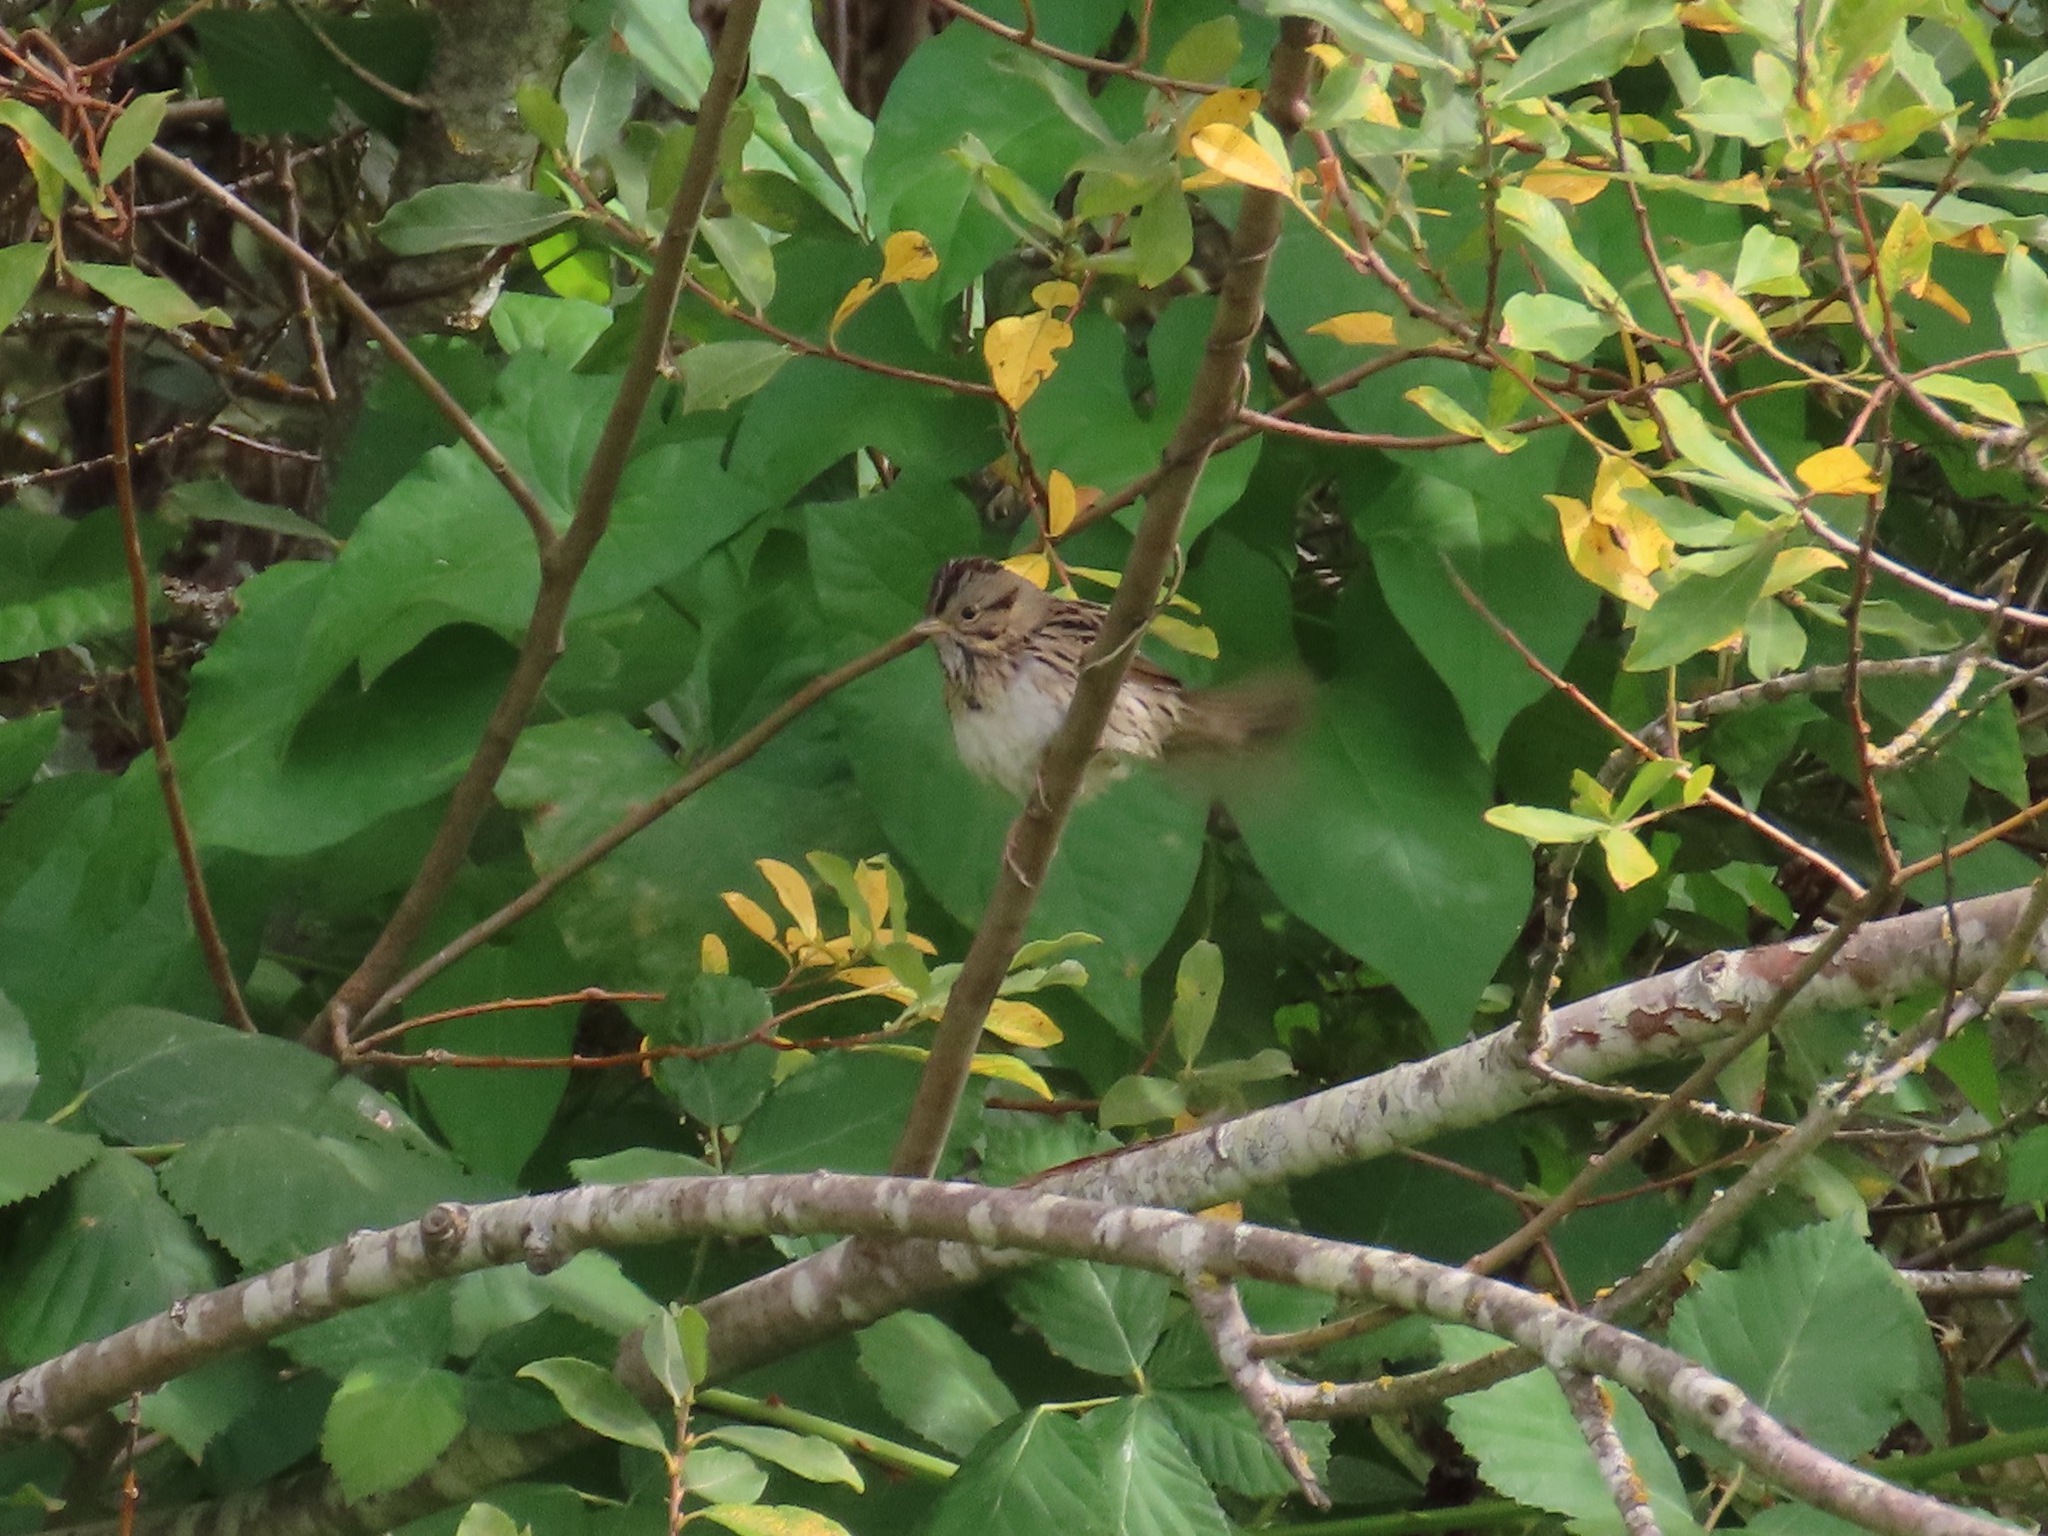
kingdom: Animalia
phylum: Chordata
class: Aves
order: Passeriformes
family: Passerellidae
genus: Melospiza
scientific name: Melospiza lincolnii
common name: Lincoln's sparrow
